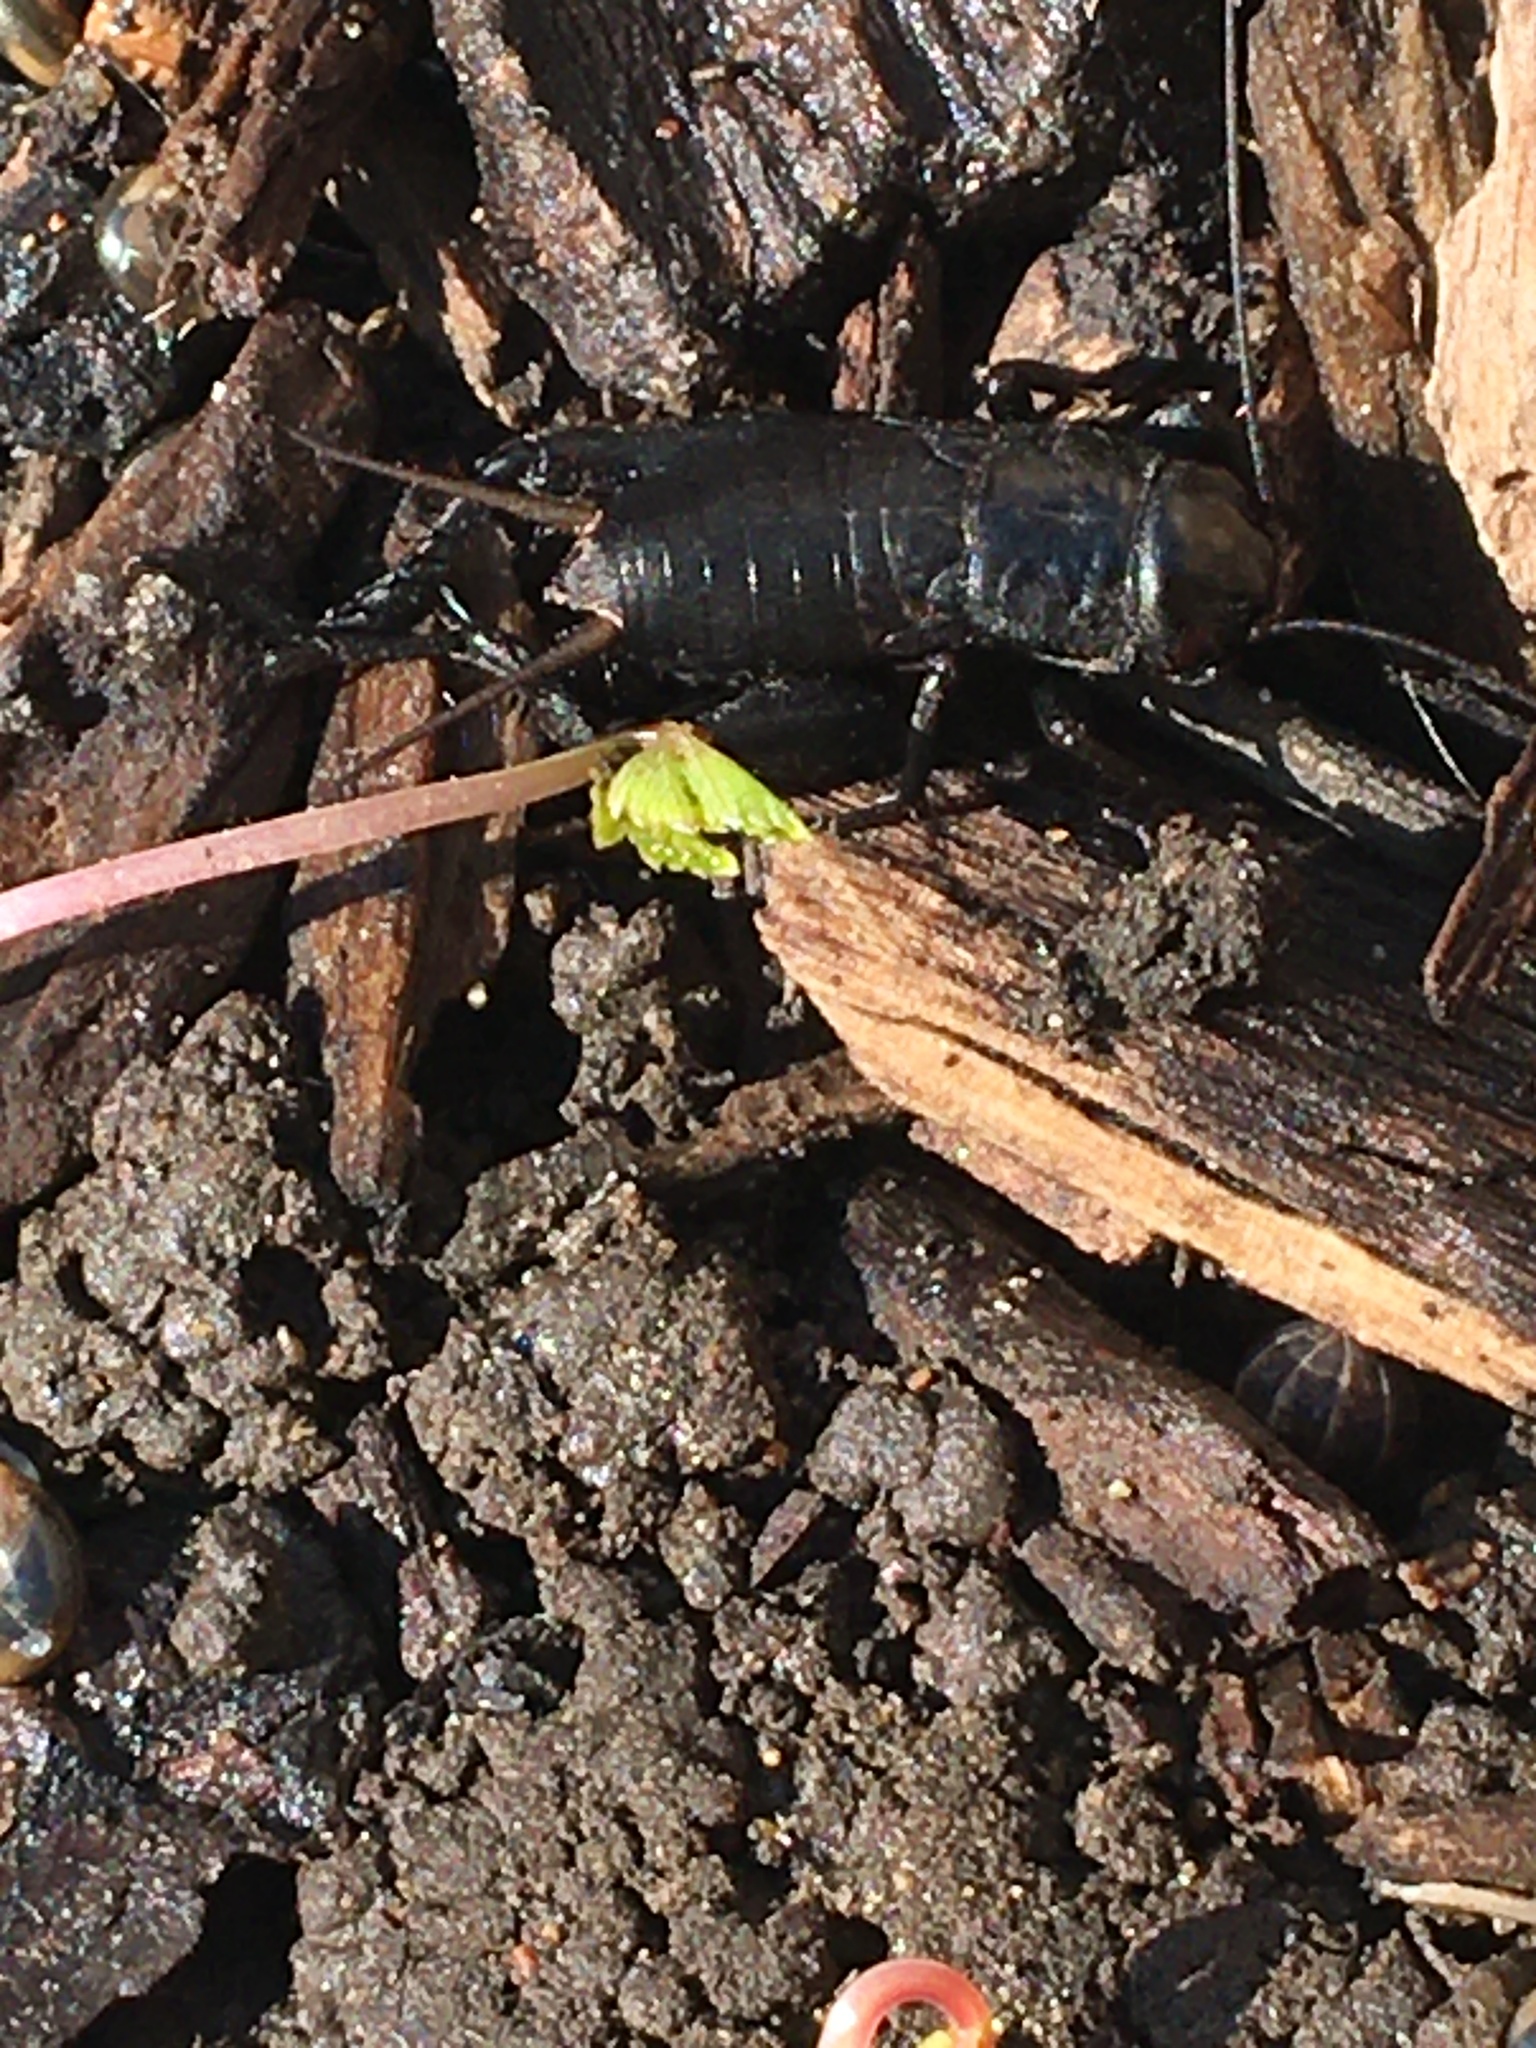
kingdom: Animalia
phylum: Arthropoda
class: Insecta
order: Orthoptera
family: Gryllidae
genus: Gryllus
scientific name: Gryllus veletis
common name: Spring field cricket
